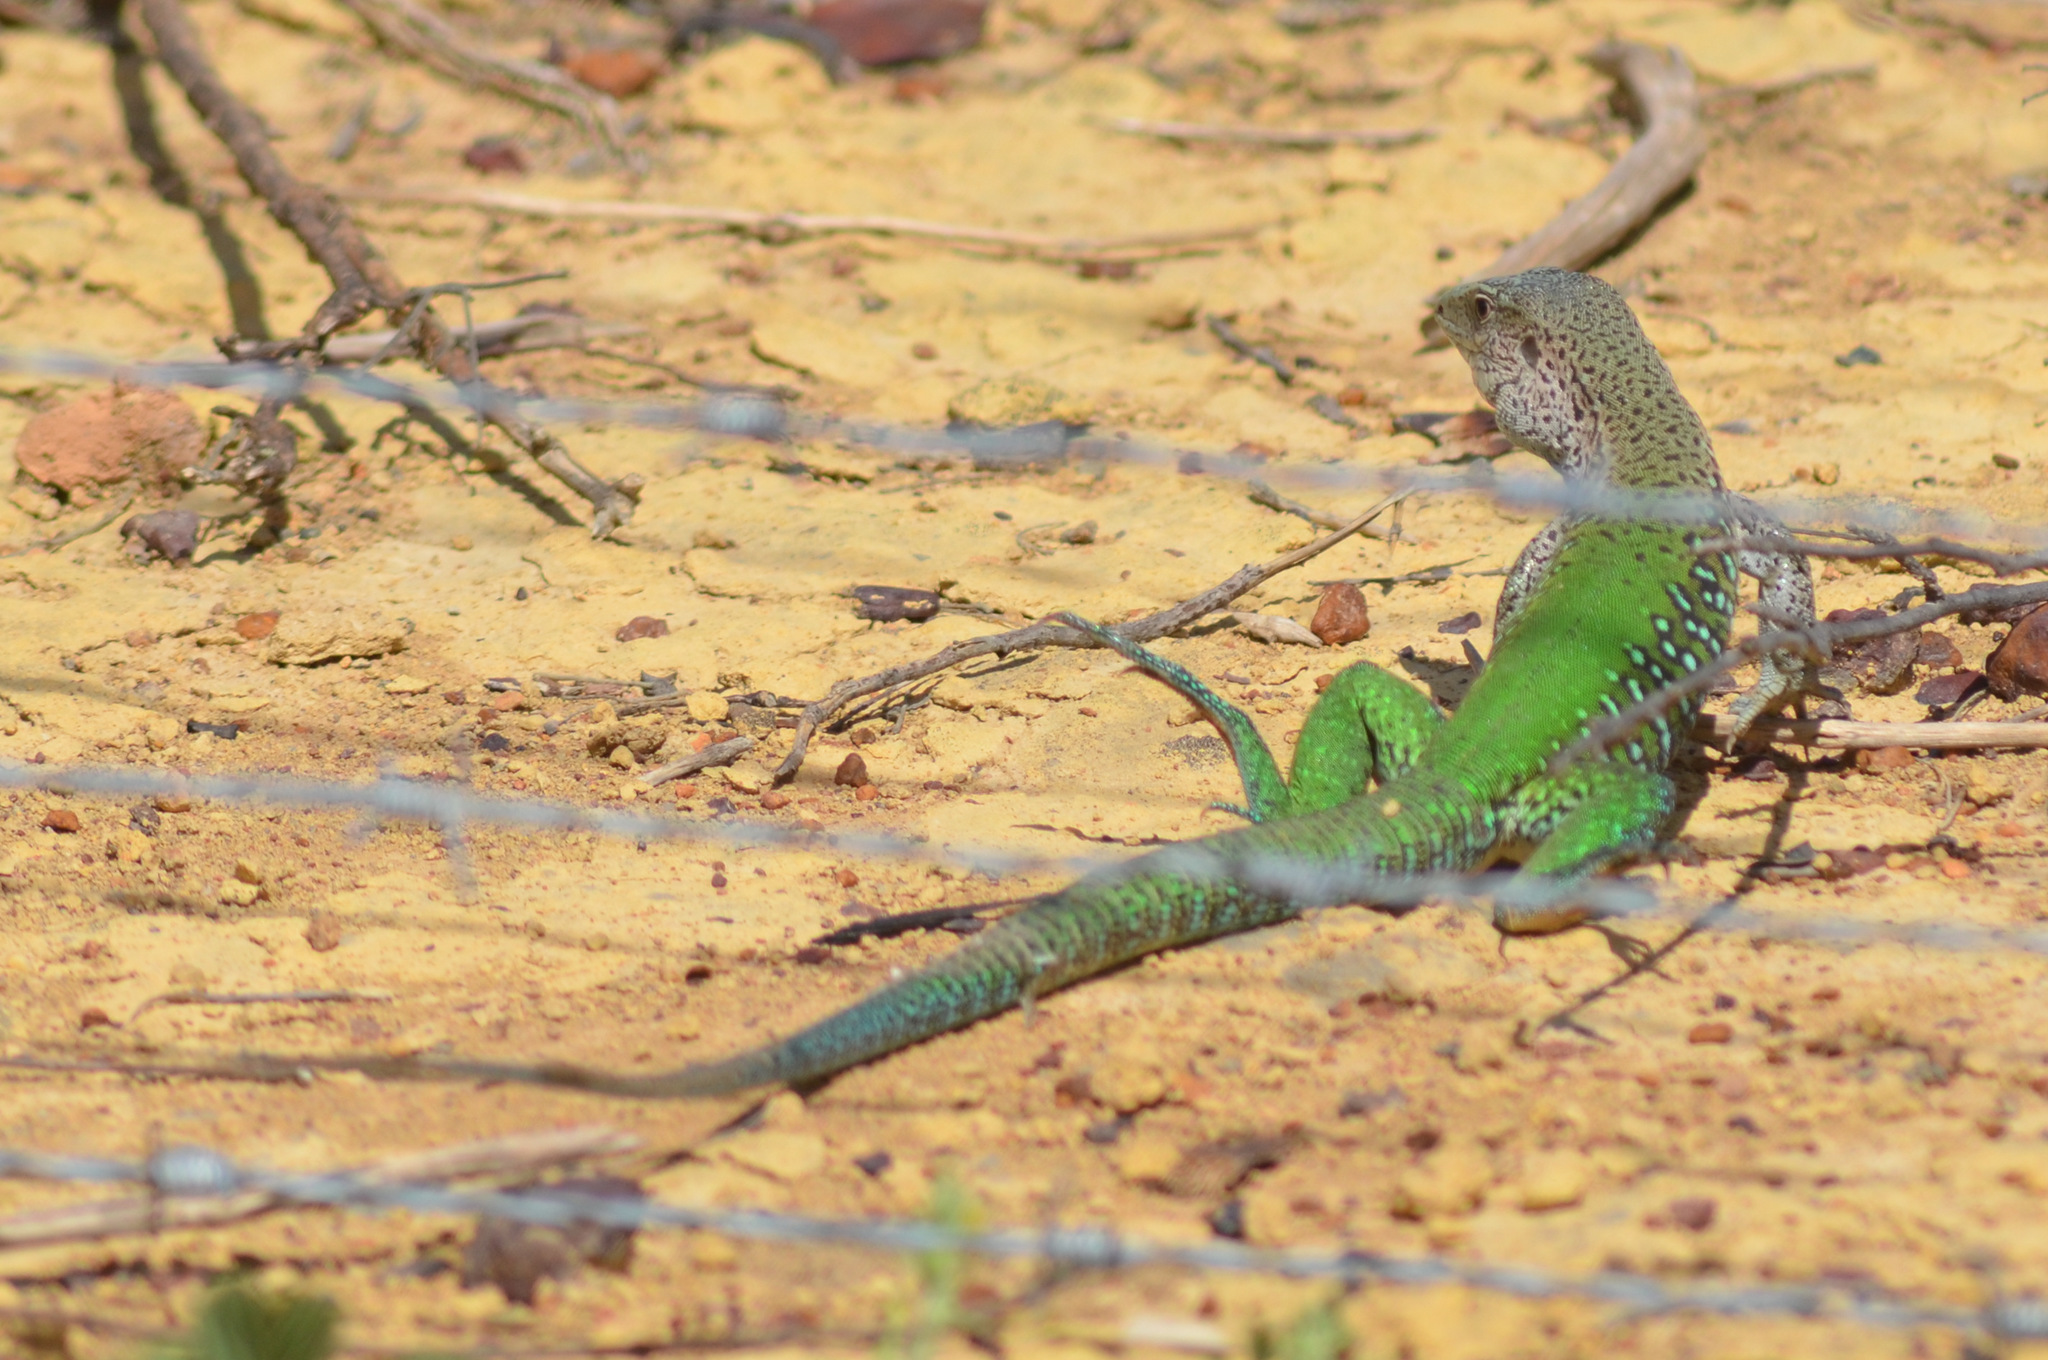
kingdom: Animalia
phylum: Chordata
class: Squamata
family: Teiidae
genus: Ameiva
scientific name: Ameiva ameiva
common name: Giant ameiva
